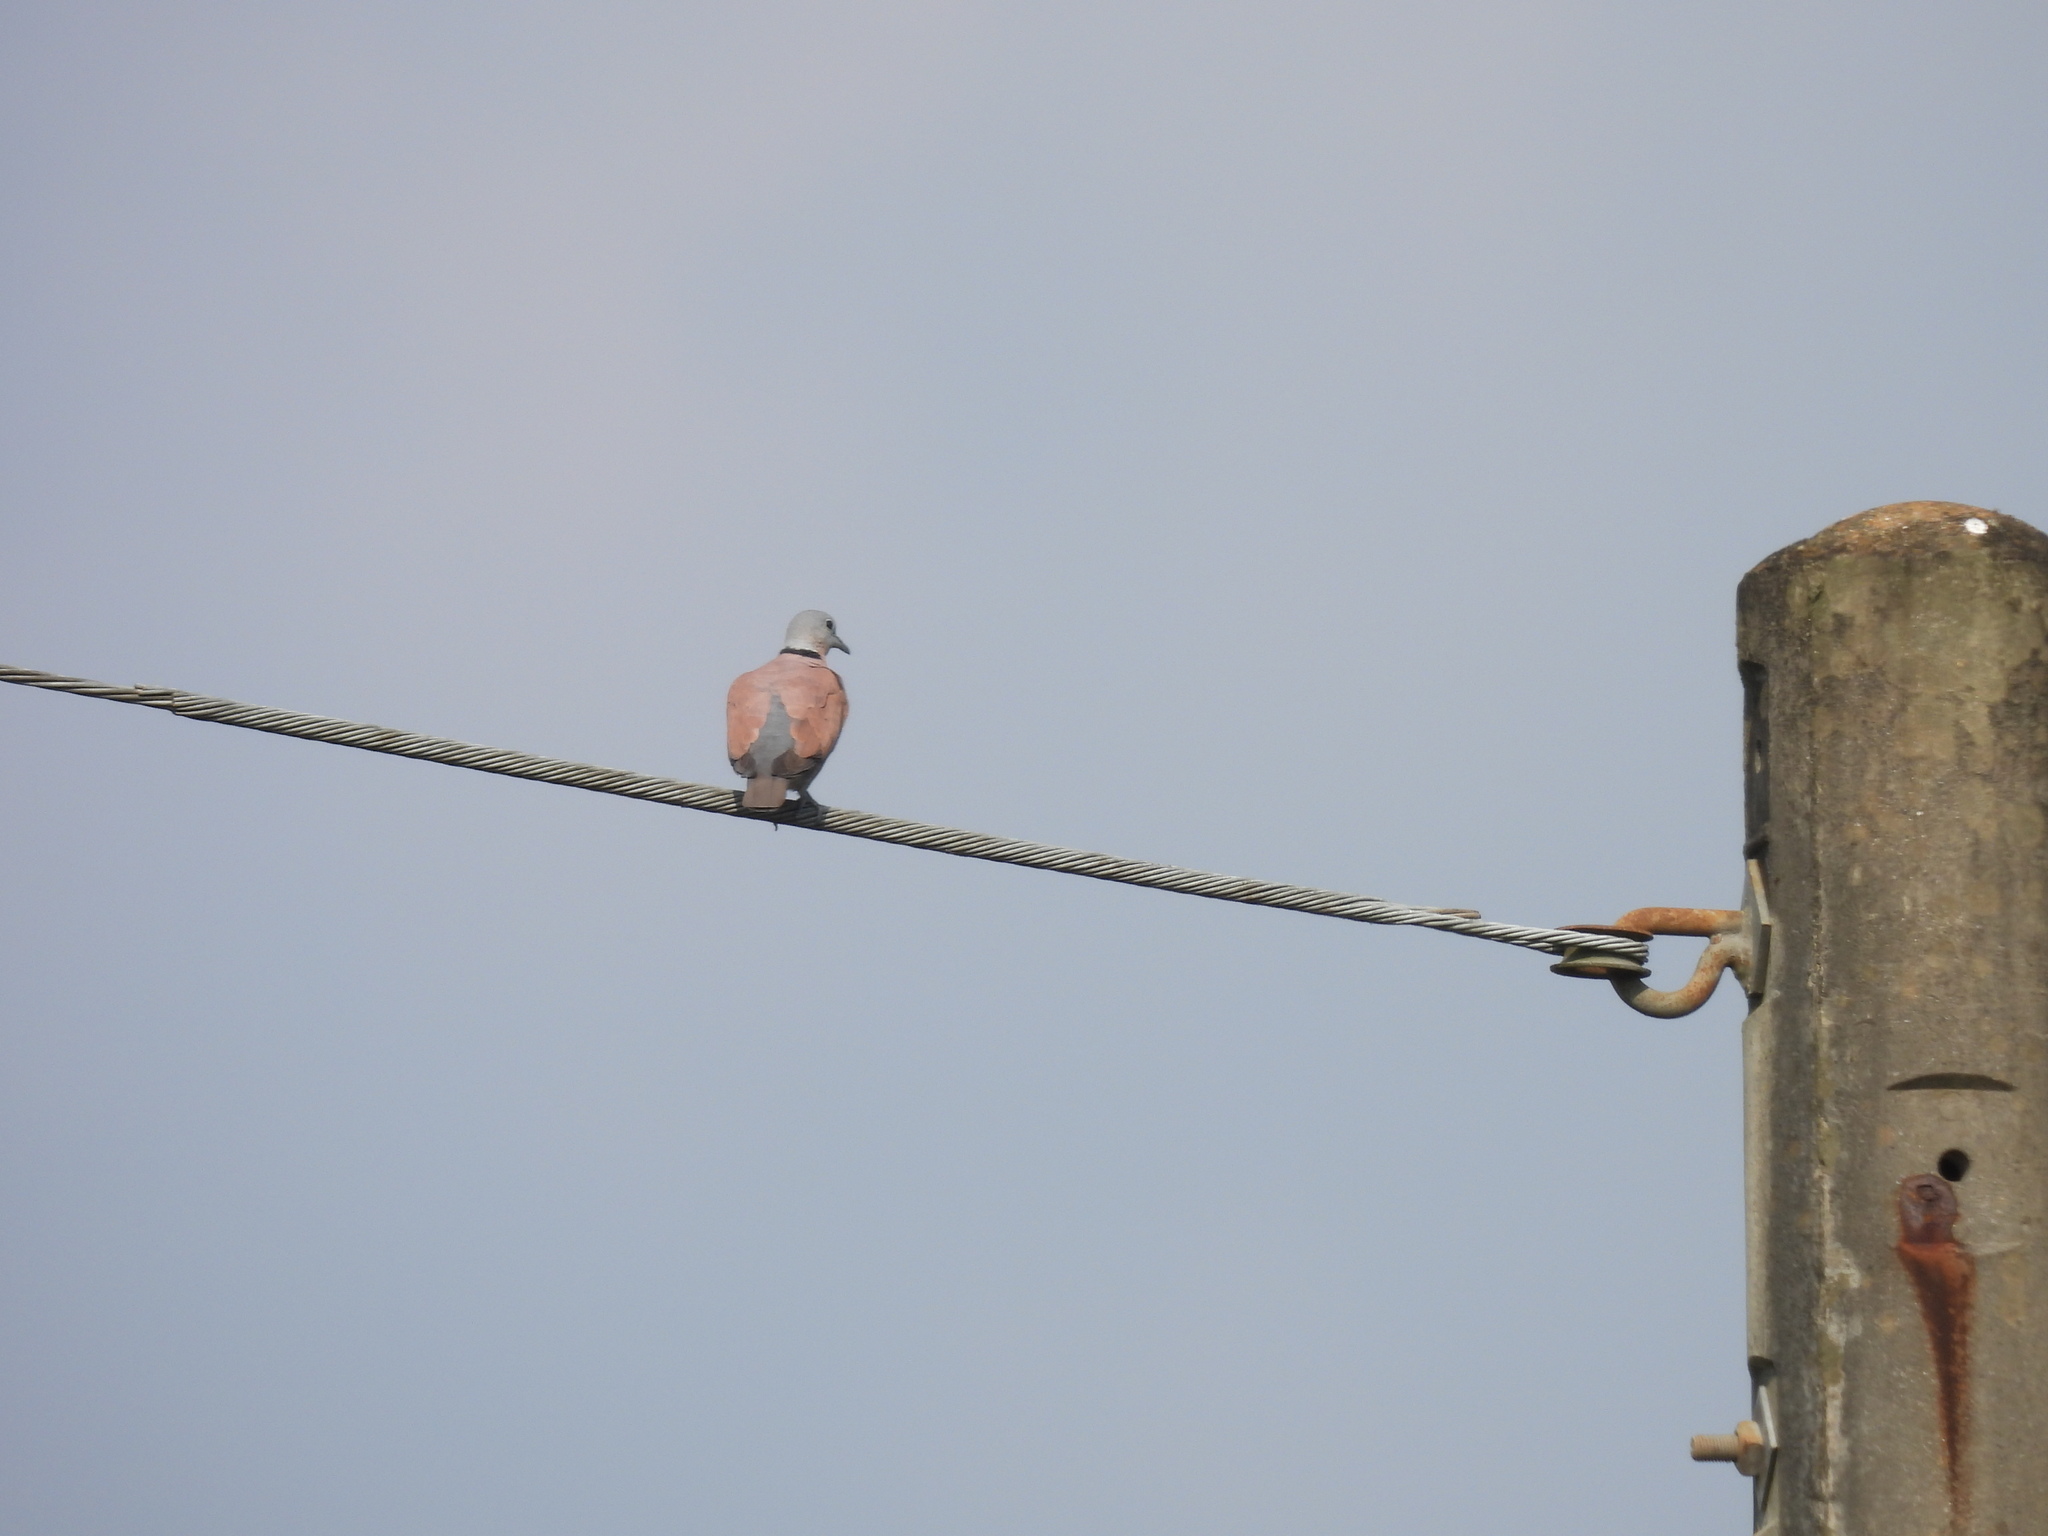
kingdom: Animalia
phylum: Chordata
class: Aves
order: Columbiformes
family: Columbidae
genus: Streptopelia
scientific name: Streptopelia tranquebarica
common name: Red turtle dove
